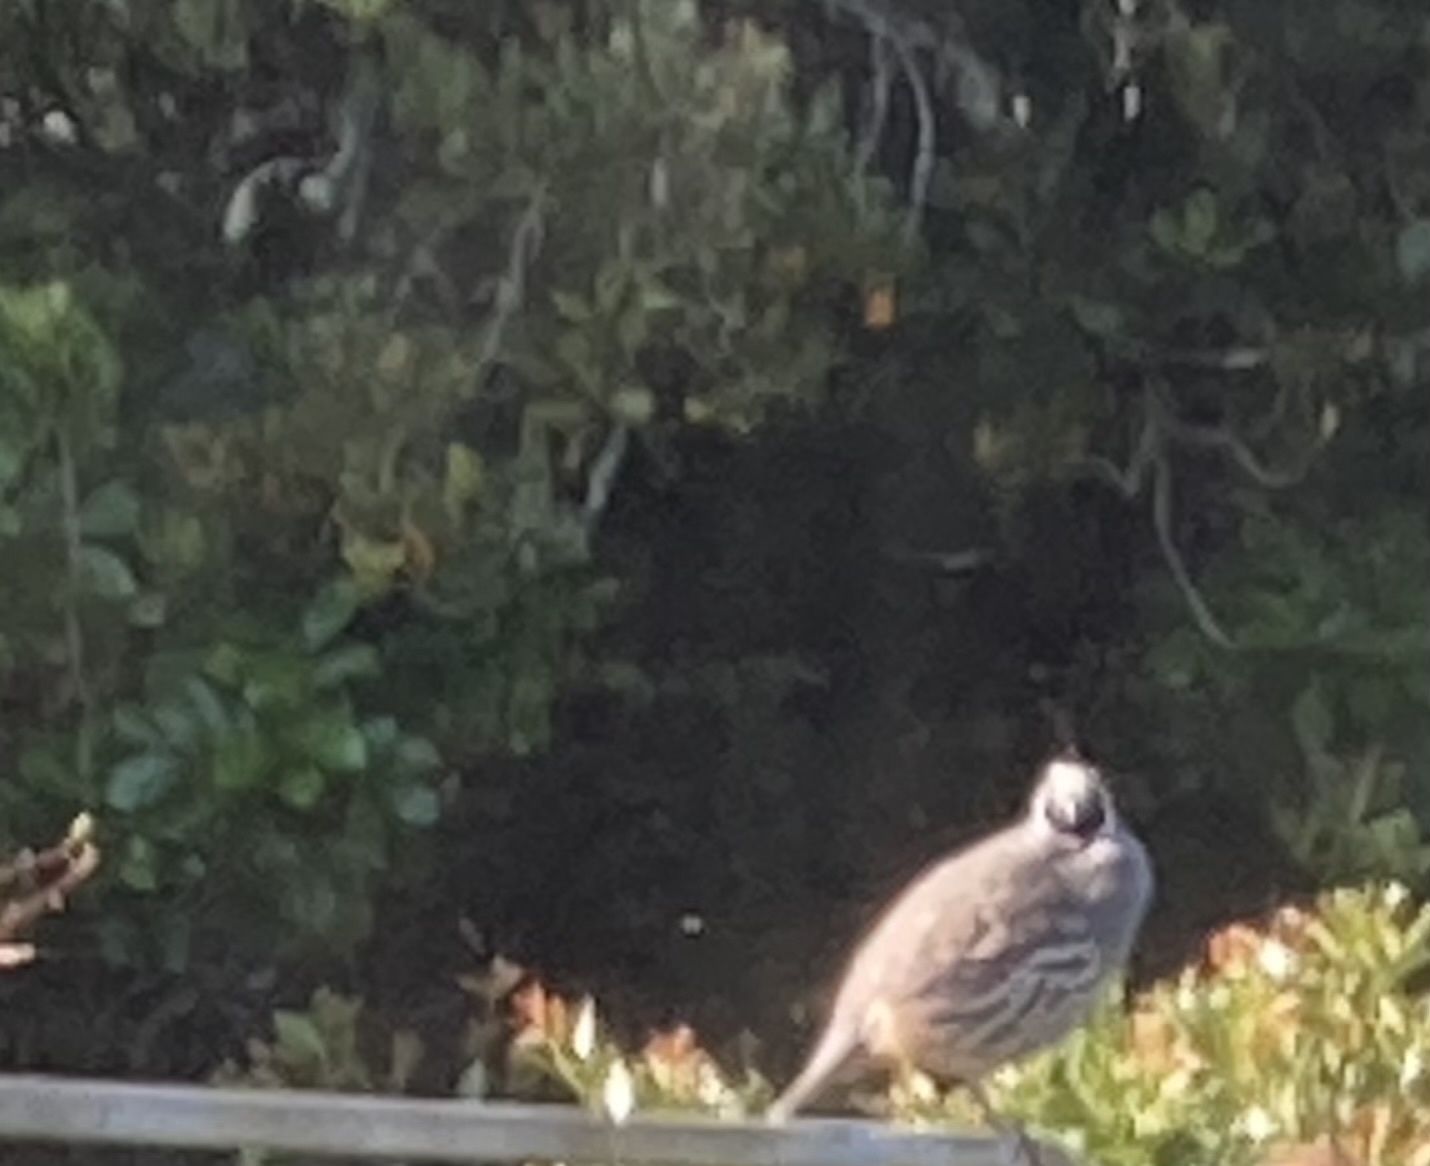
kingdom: Animalia
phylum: Chordata
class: Aves
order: Galliformes
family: Odontophoridae
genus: Callipepla
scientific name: Callipepla californica
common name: California quail
